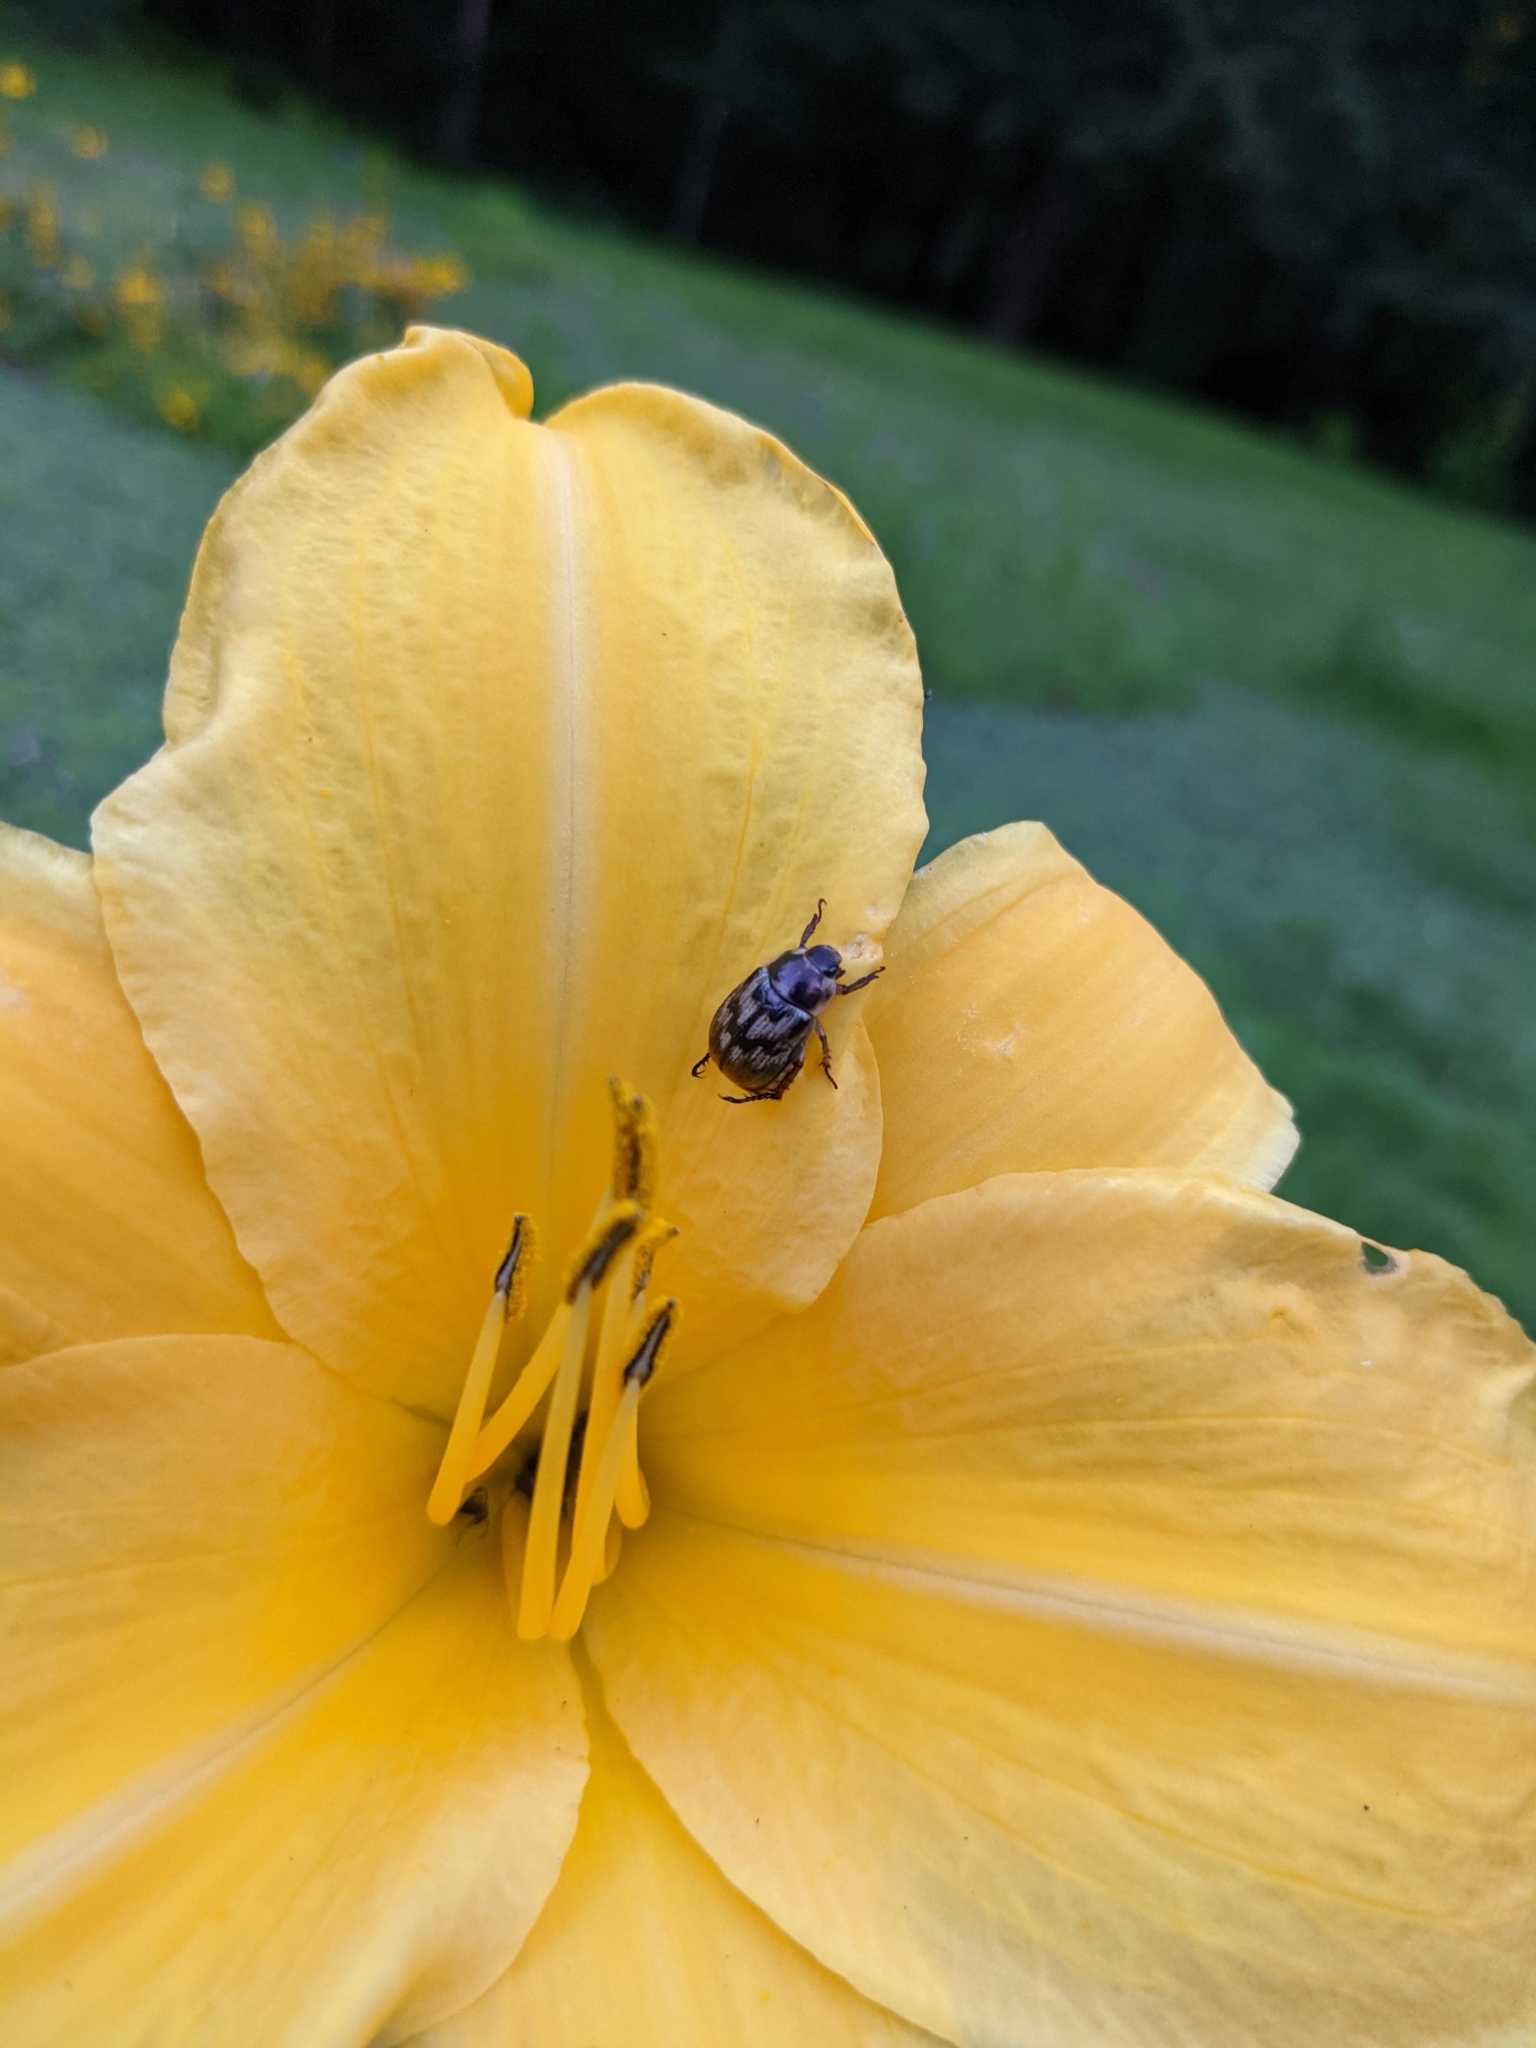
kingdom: Animalia
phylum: Arthropoda
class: Insecta
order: Coleoptera
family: Scarabaeidae
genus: Exomala
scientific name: Exomala orientalis
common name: Oriental beetle
